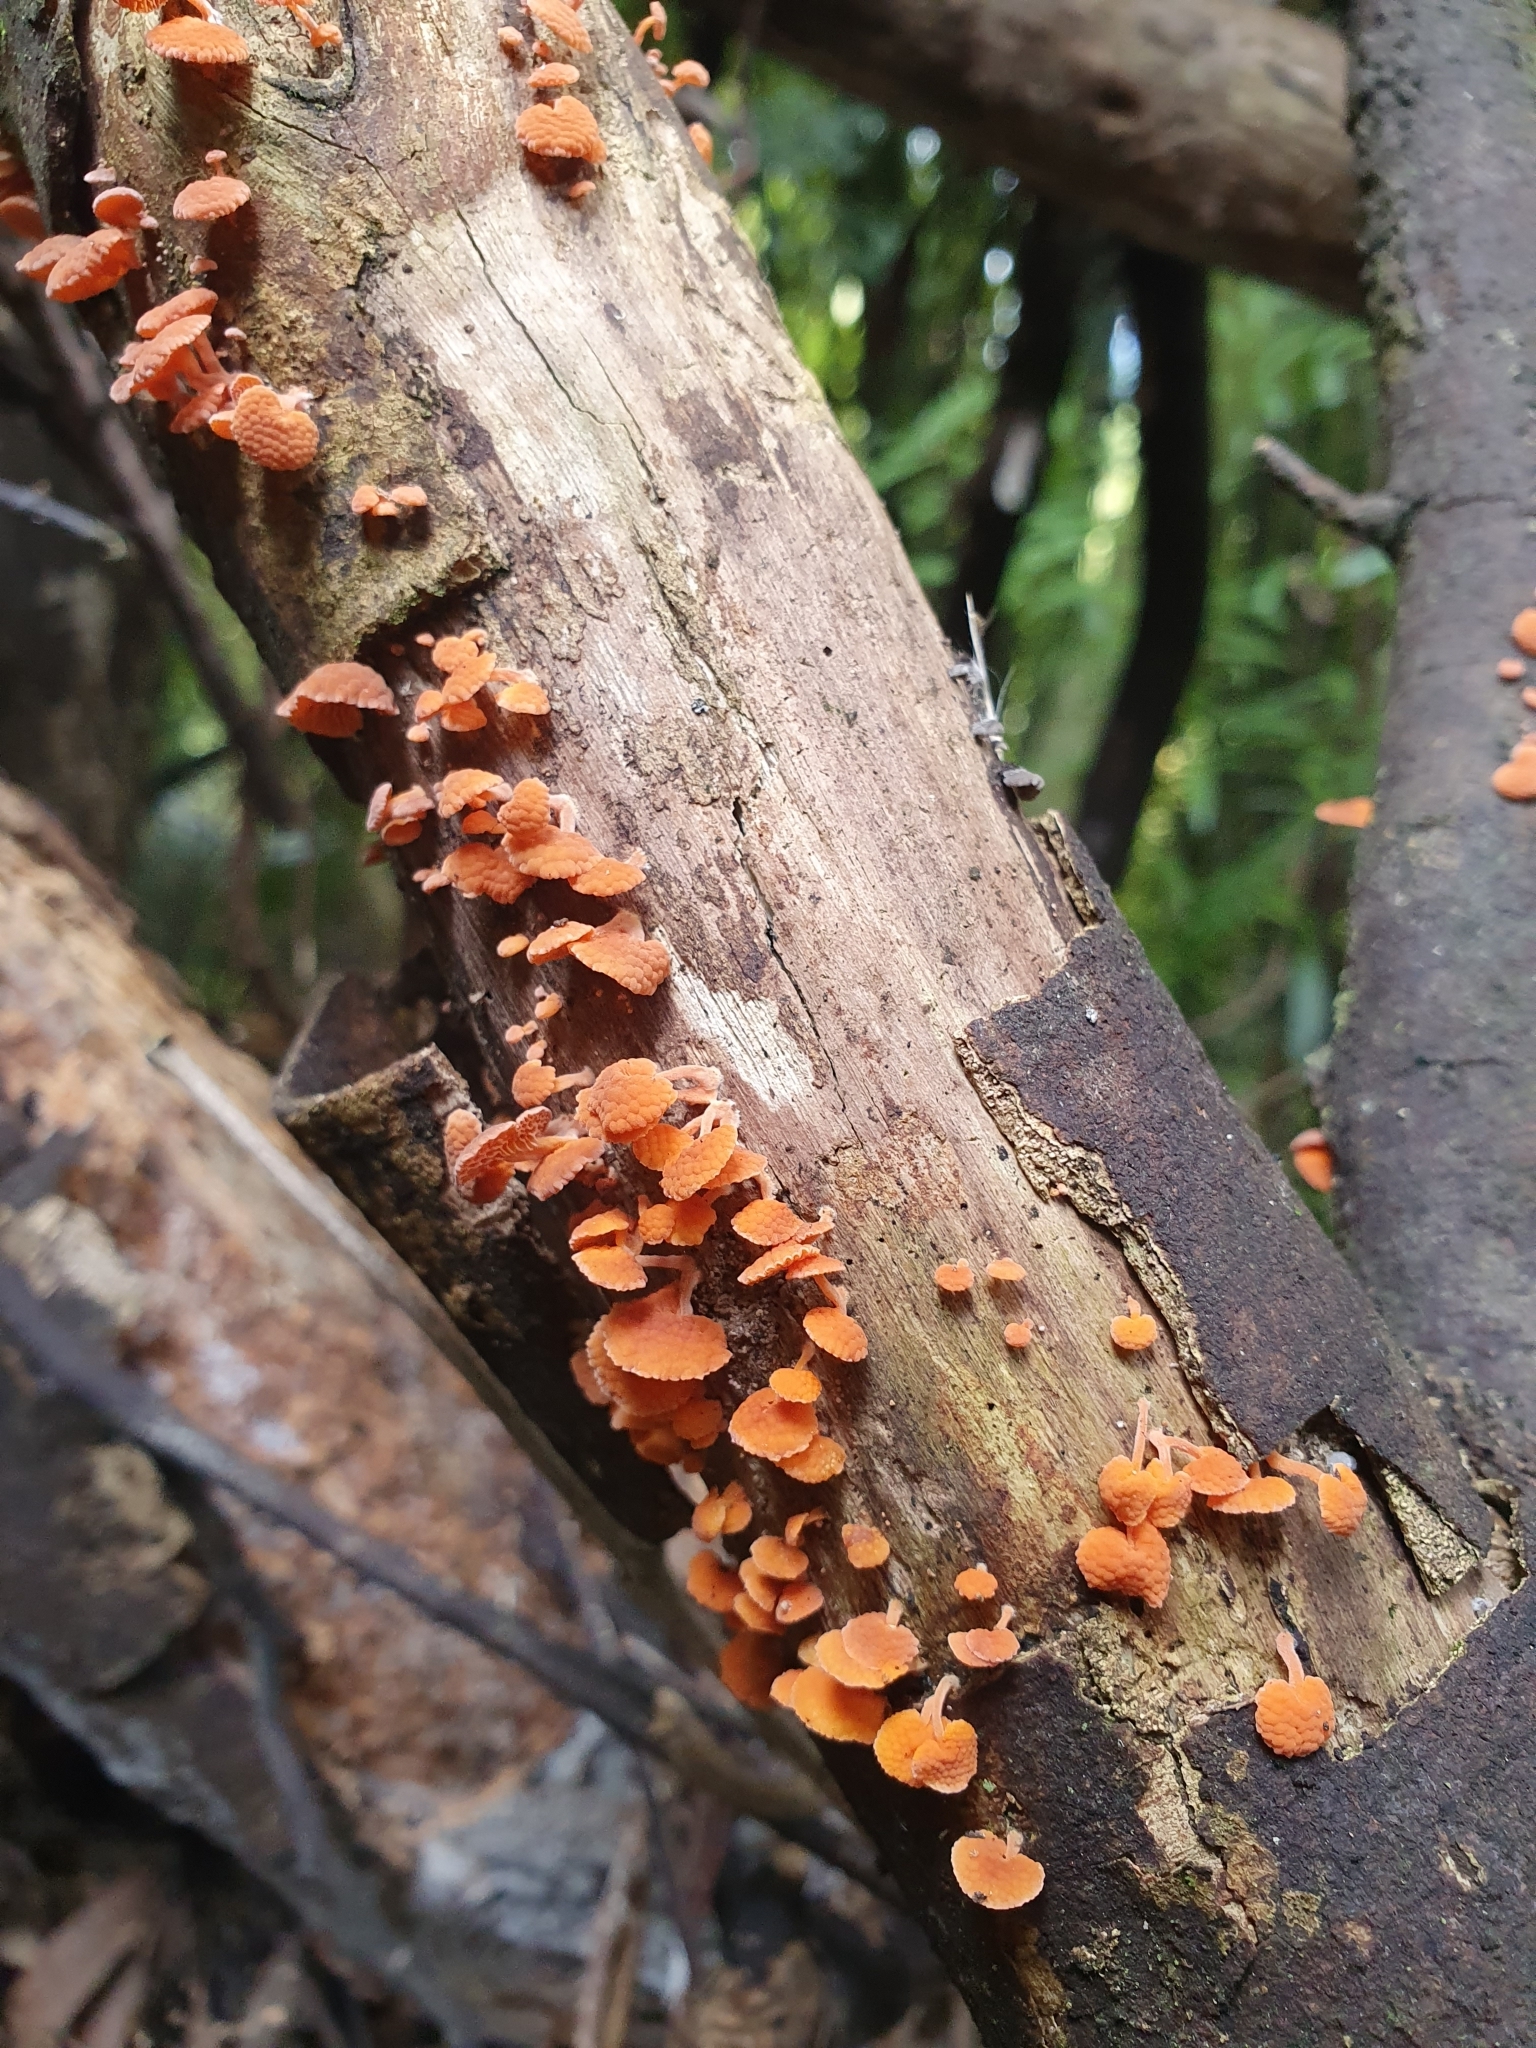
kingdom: Fungi
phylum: Basidiomycota
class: Agaricomycetes
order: Agaricales
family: Mycenaceae
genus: Favolaschia
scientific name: Favolaschia claudopus
